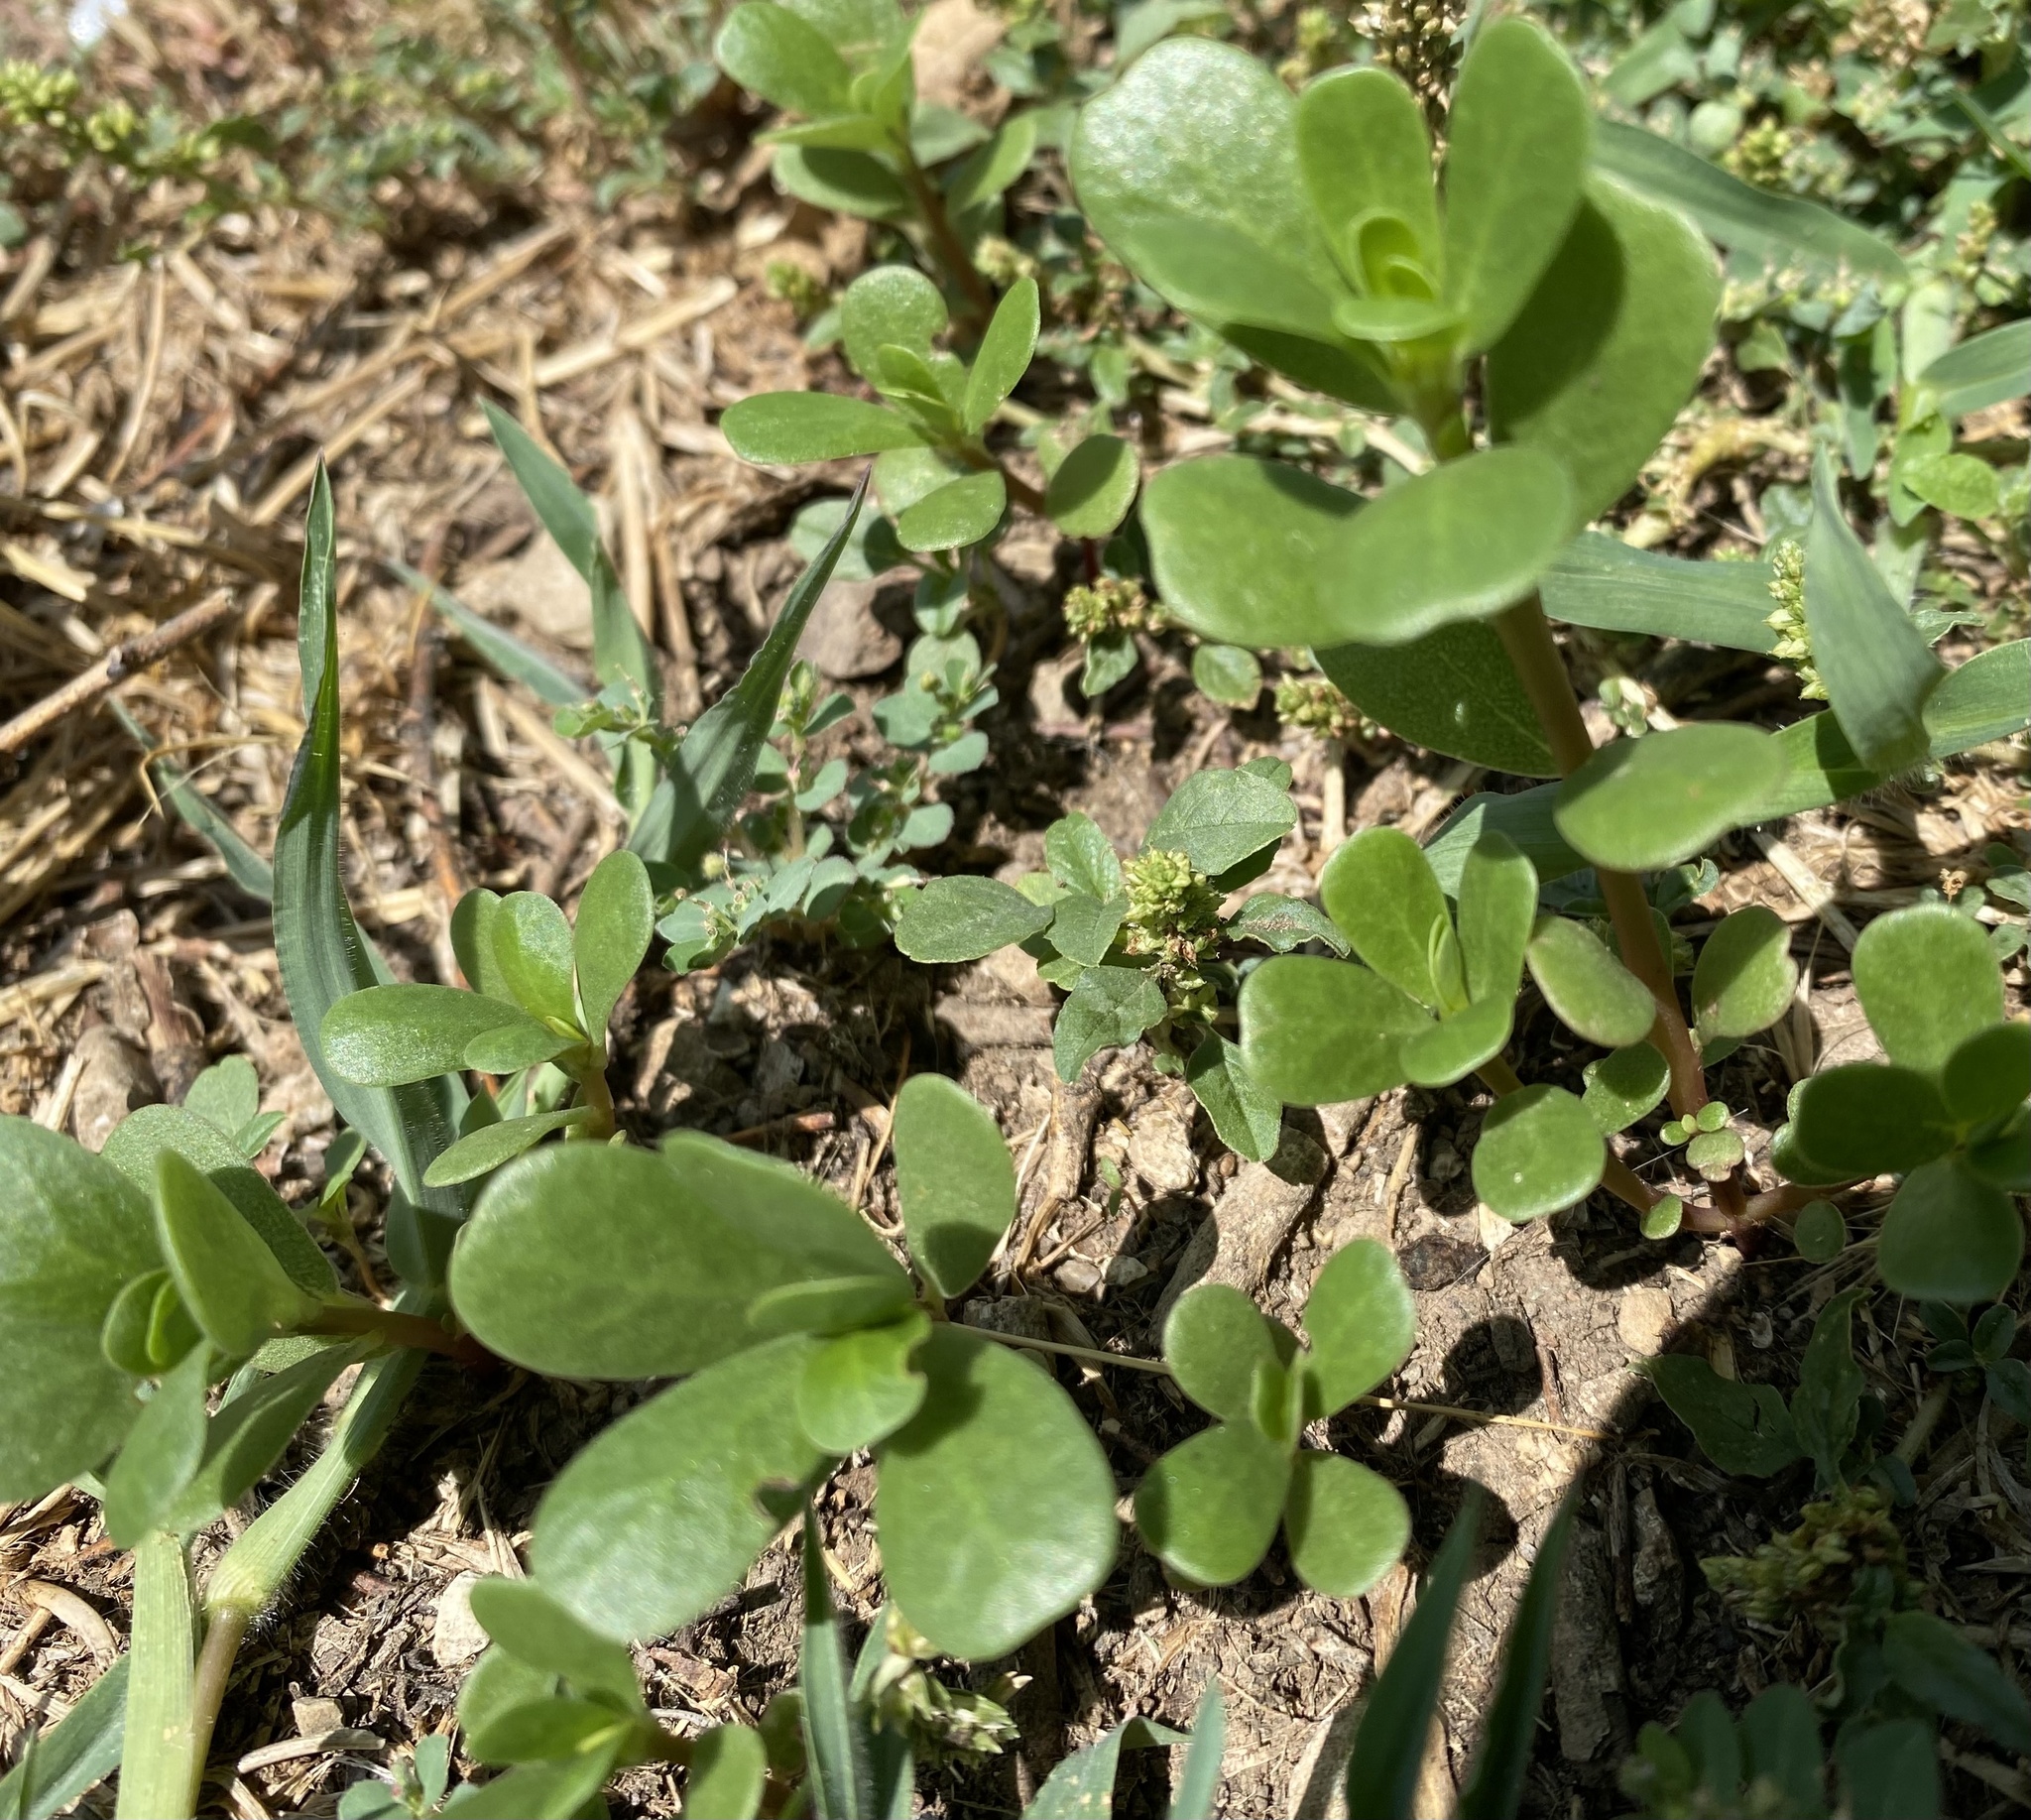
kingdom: Plantae
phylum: Tracheophyta
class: Magnoliopsida
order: Caryophyllales
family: Portulacaceae
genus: Portulaca
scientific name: Portulaca oleracea
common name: Common purslane
